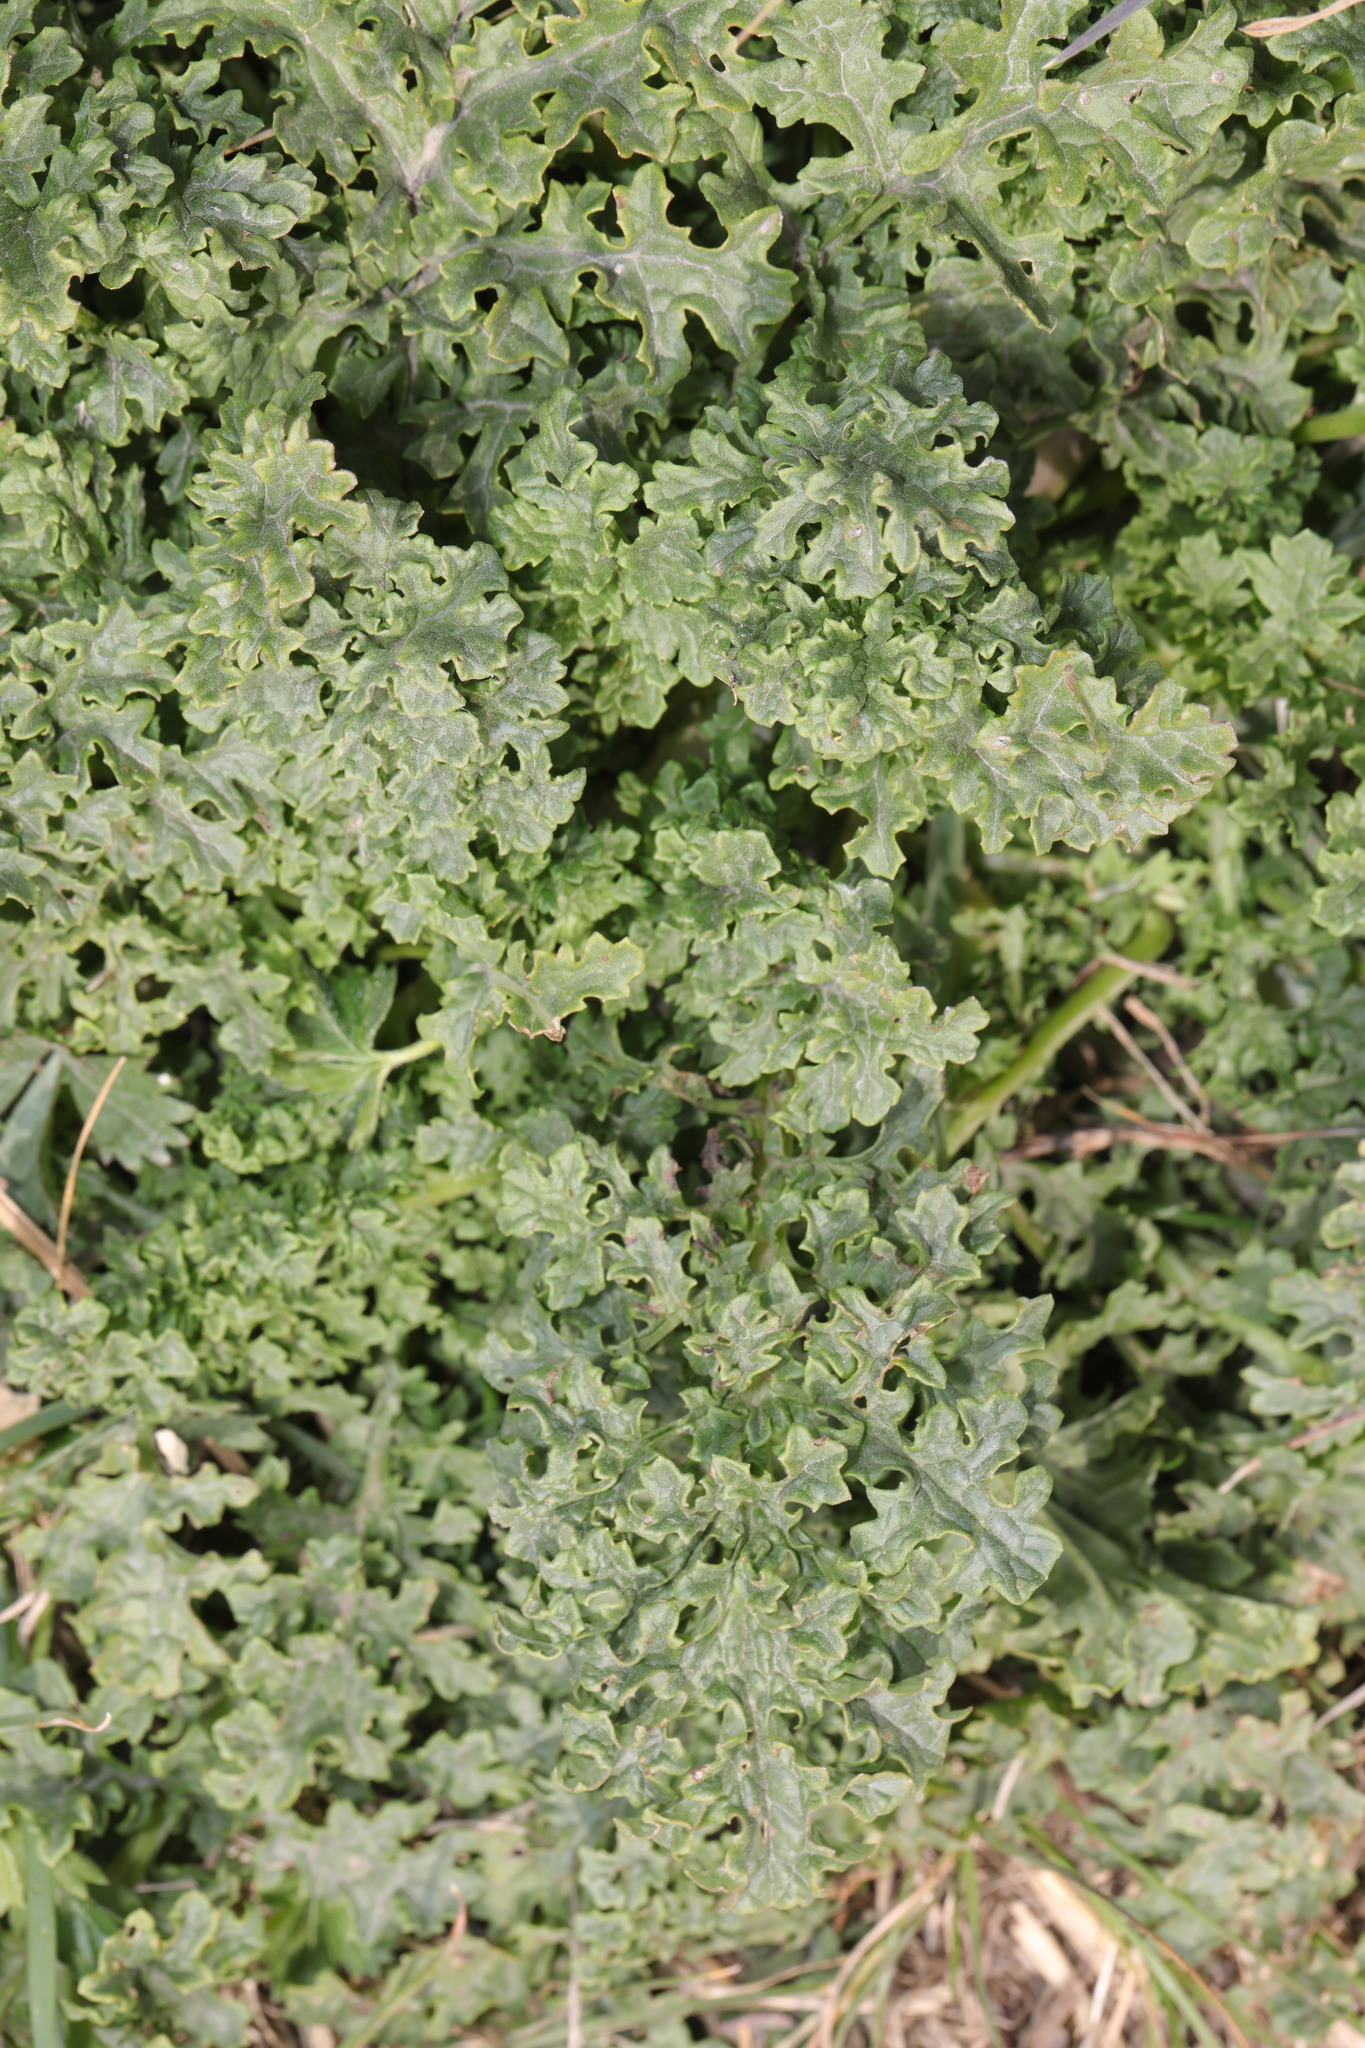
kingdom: Plantae
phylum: Tracheophyta
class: Magnoliopsida
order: Asterales
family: Asteraceae
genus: Jacobaea
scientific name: Jacobaea vulgaris
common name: Stinking willie
